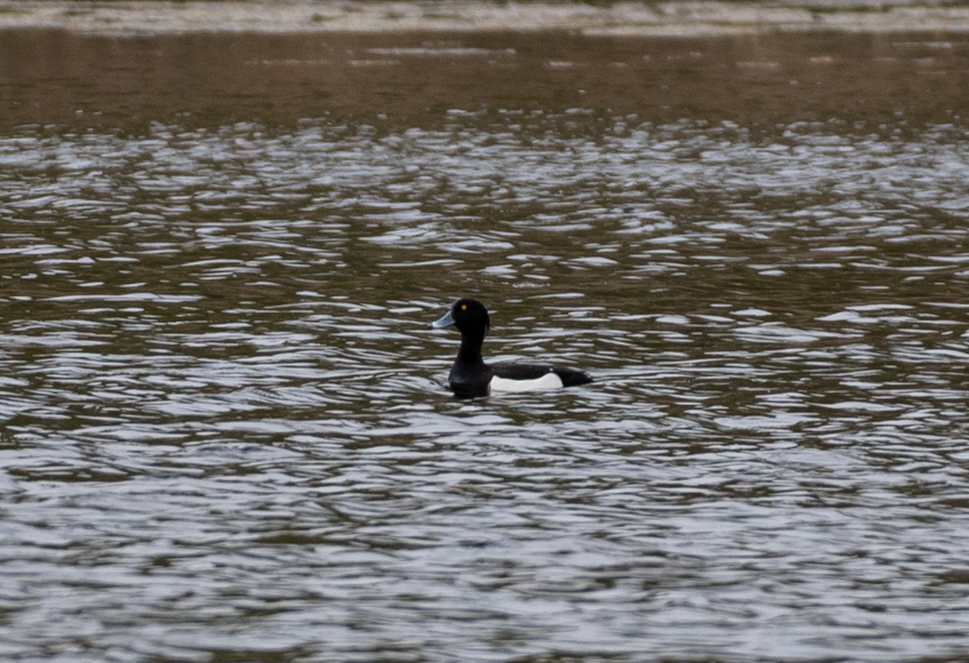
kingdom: Animalia
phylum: Chordata
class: Aves
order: Anseriformes
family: Anatidae
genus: Aythya
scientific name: Aythya fuligula
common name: Tufted duck
